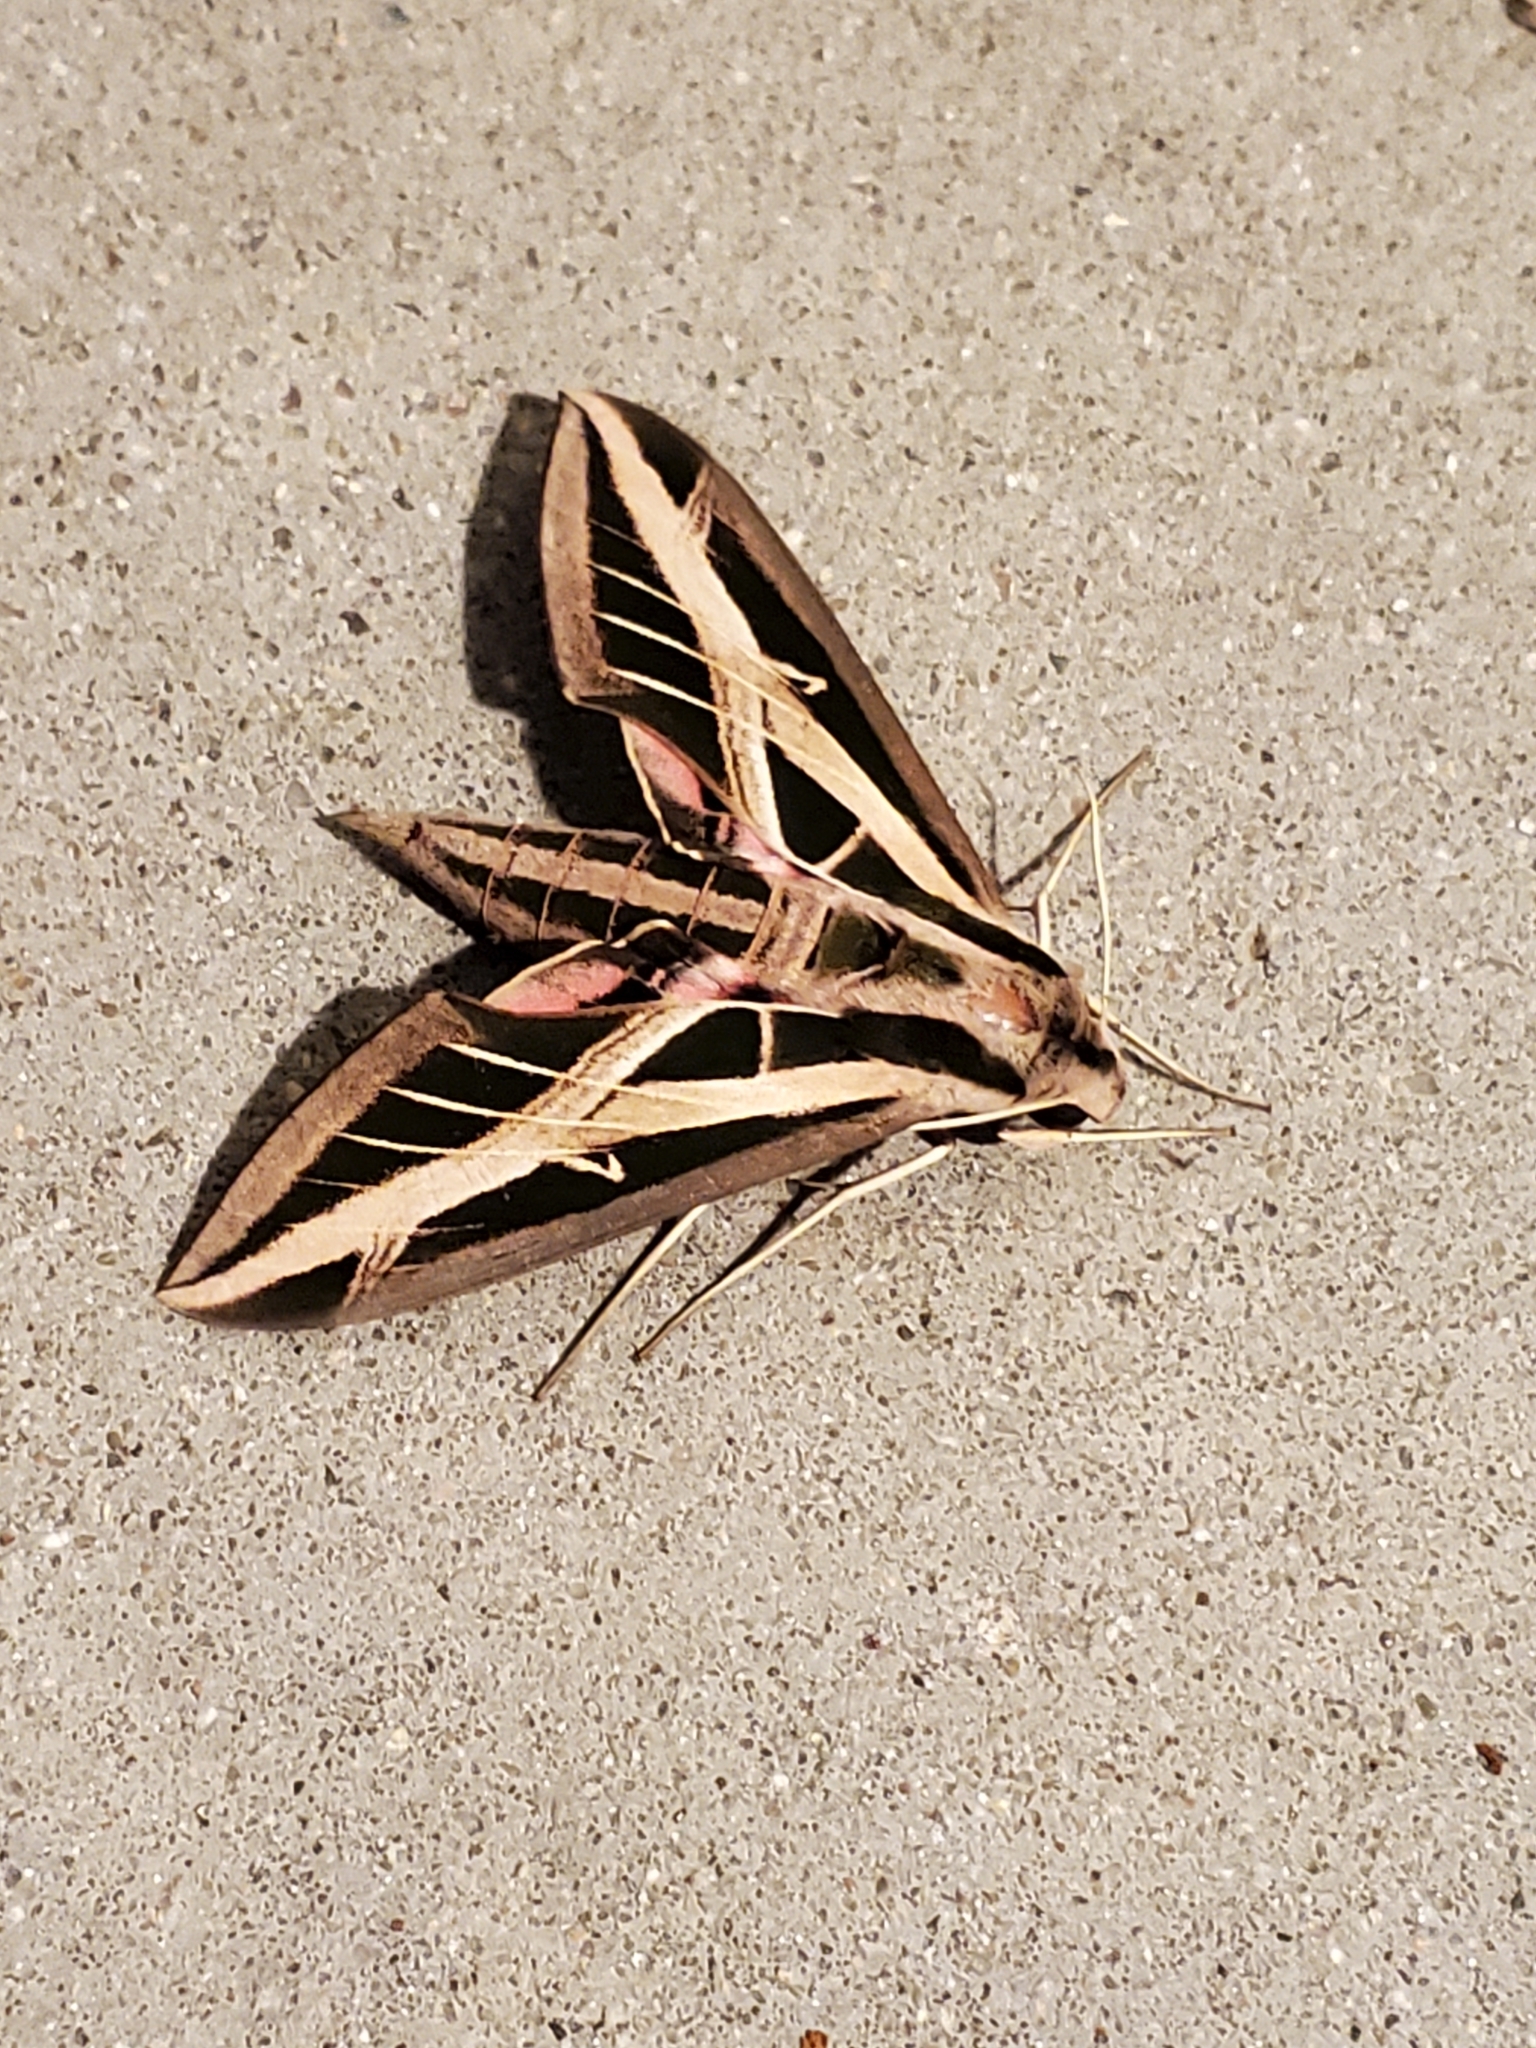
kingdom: Animalia
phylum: Arthropoda
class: Insecta
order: Lepidoptera
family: Sphingidae
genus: Eumorpha
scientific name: Eumorpha fasciatus
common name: Banded sphinx
